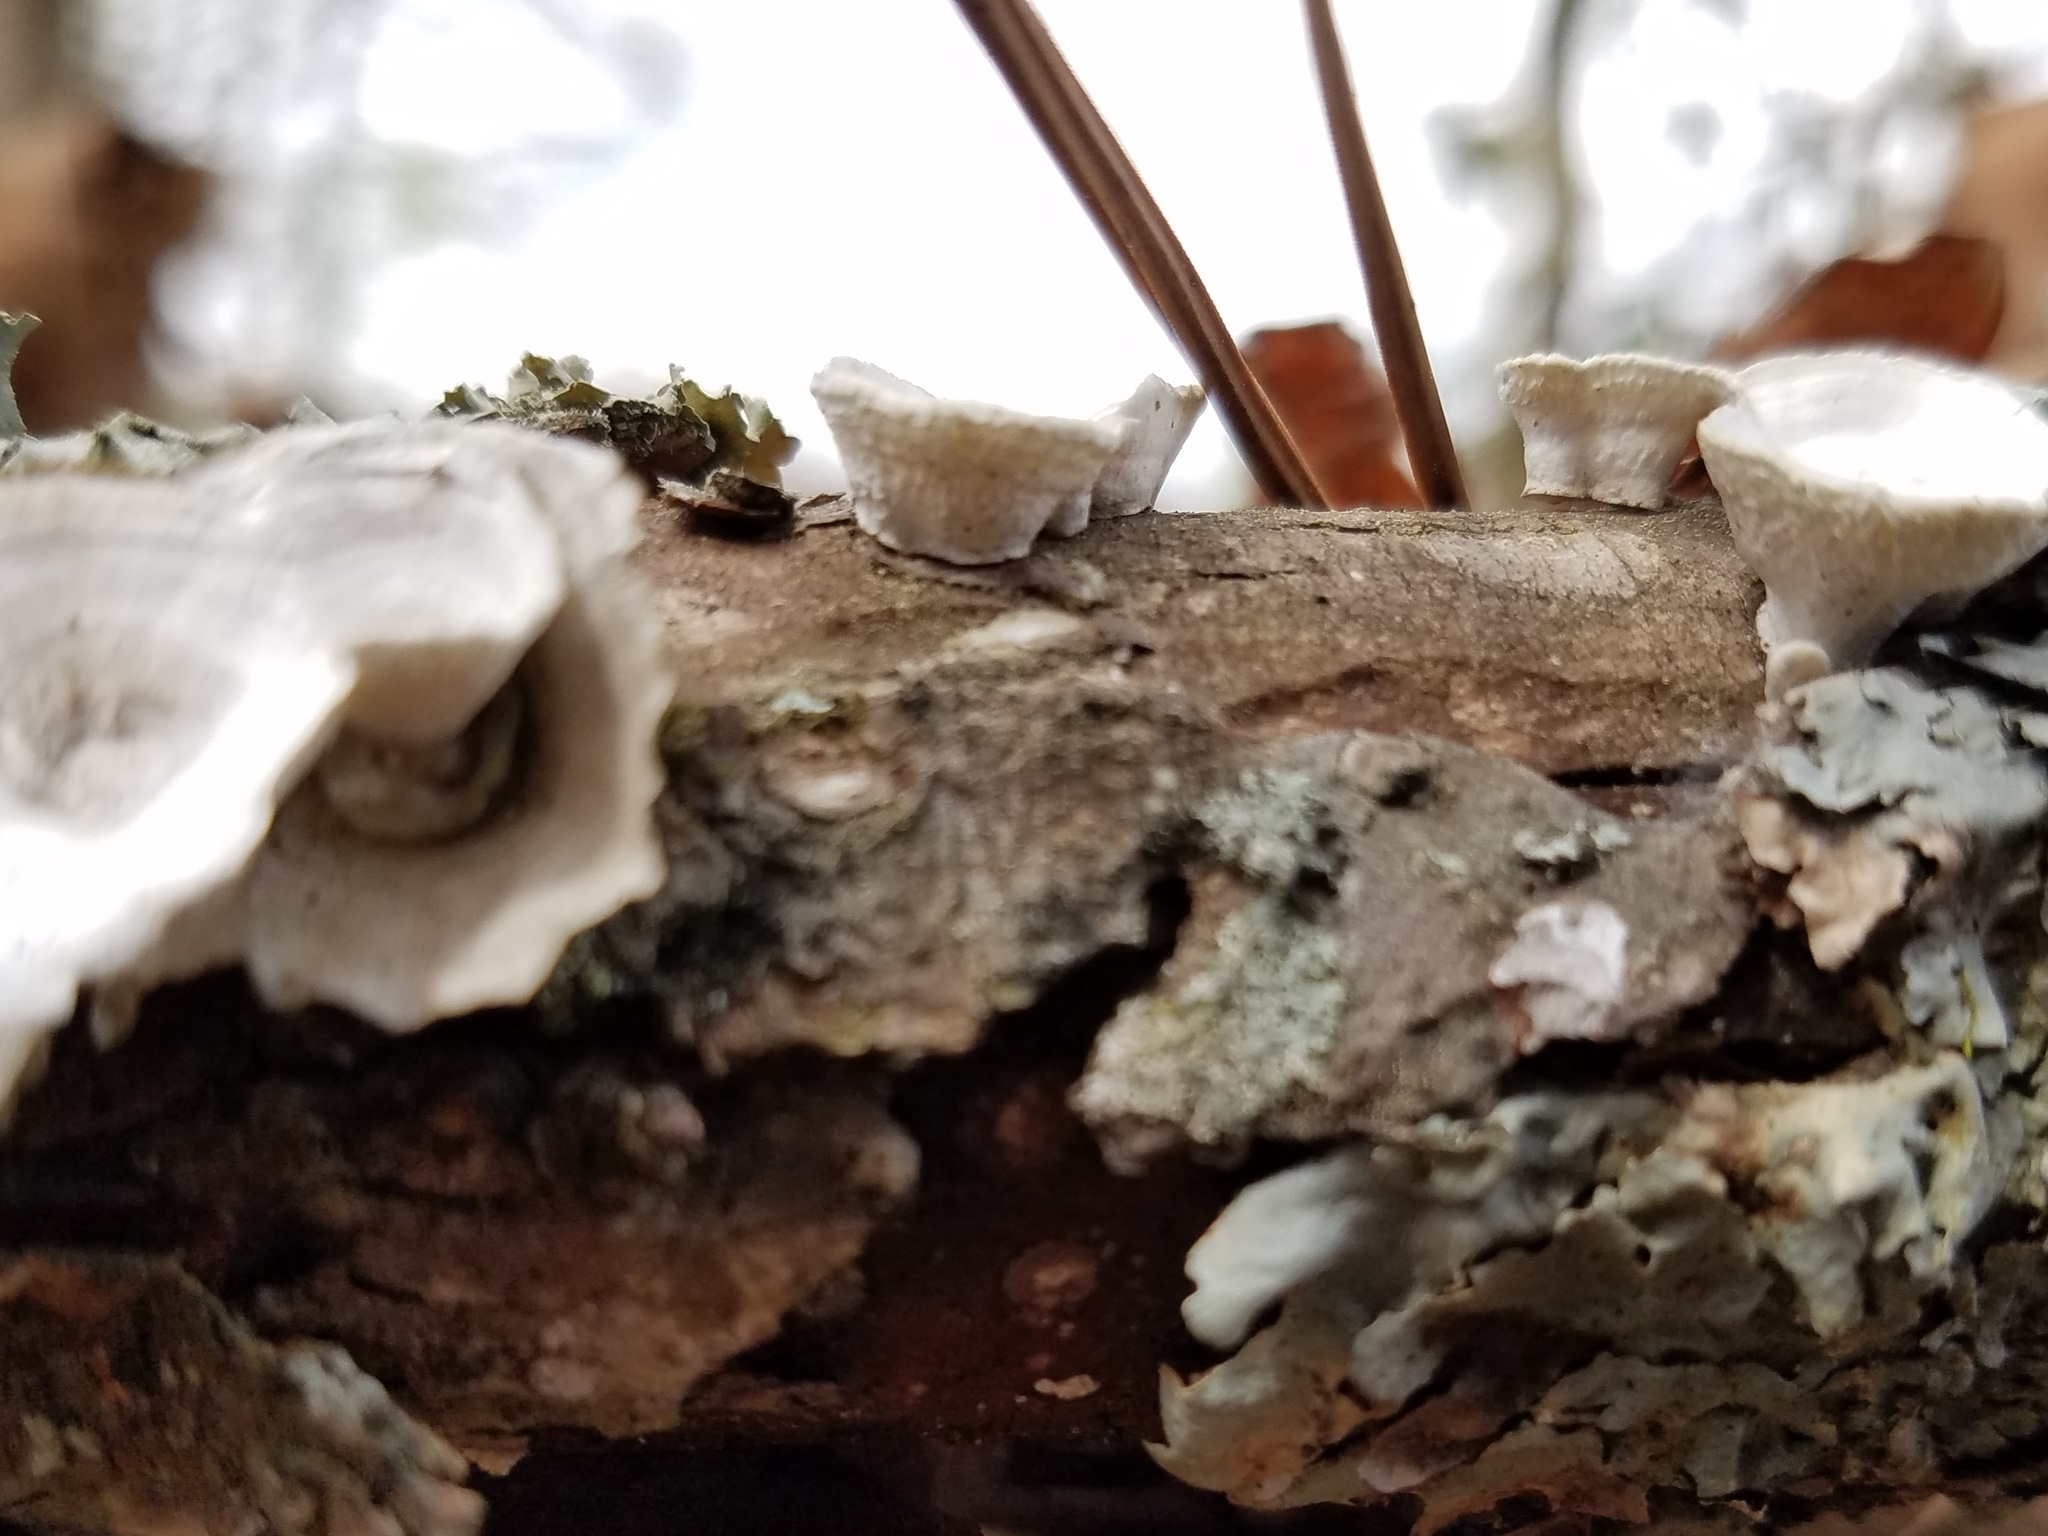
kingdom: Fungi
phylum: Basidiomycota
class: Agaricomycetes
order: Polyporales
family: Polyporaceae
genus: Poronidulus
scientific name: Poronidulus conchifer
